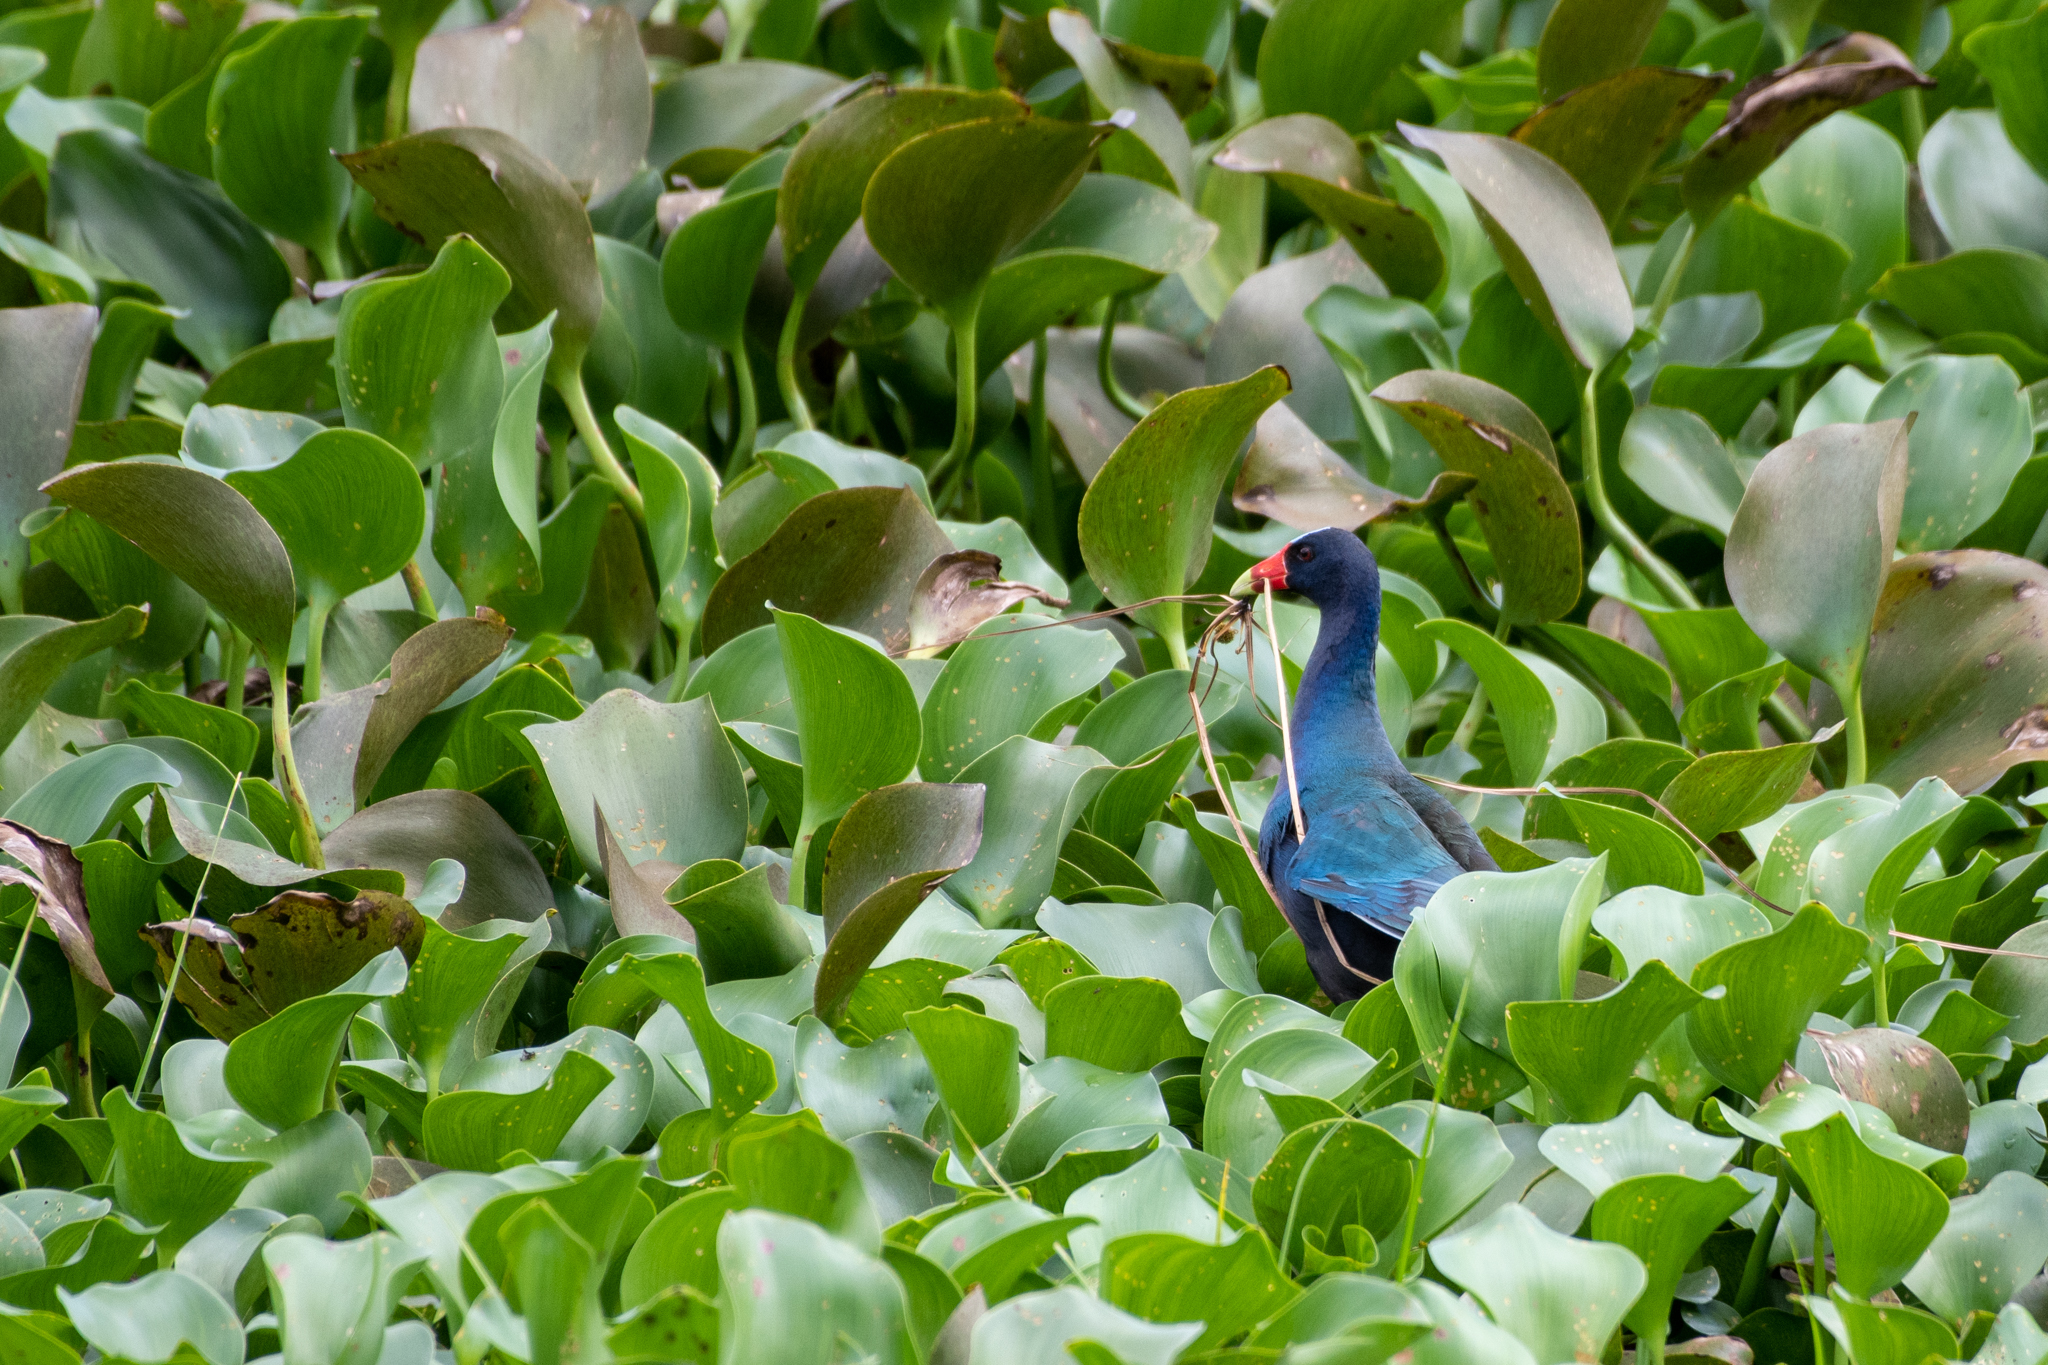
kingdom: Animalia
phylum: Chordata
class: Aves
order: Gruiformes
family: Rallidae
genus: Porphyrio
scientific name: Porphyrio martinica
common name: Purple gallinule
